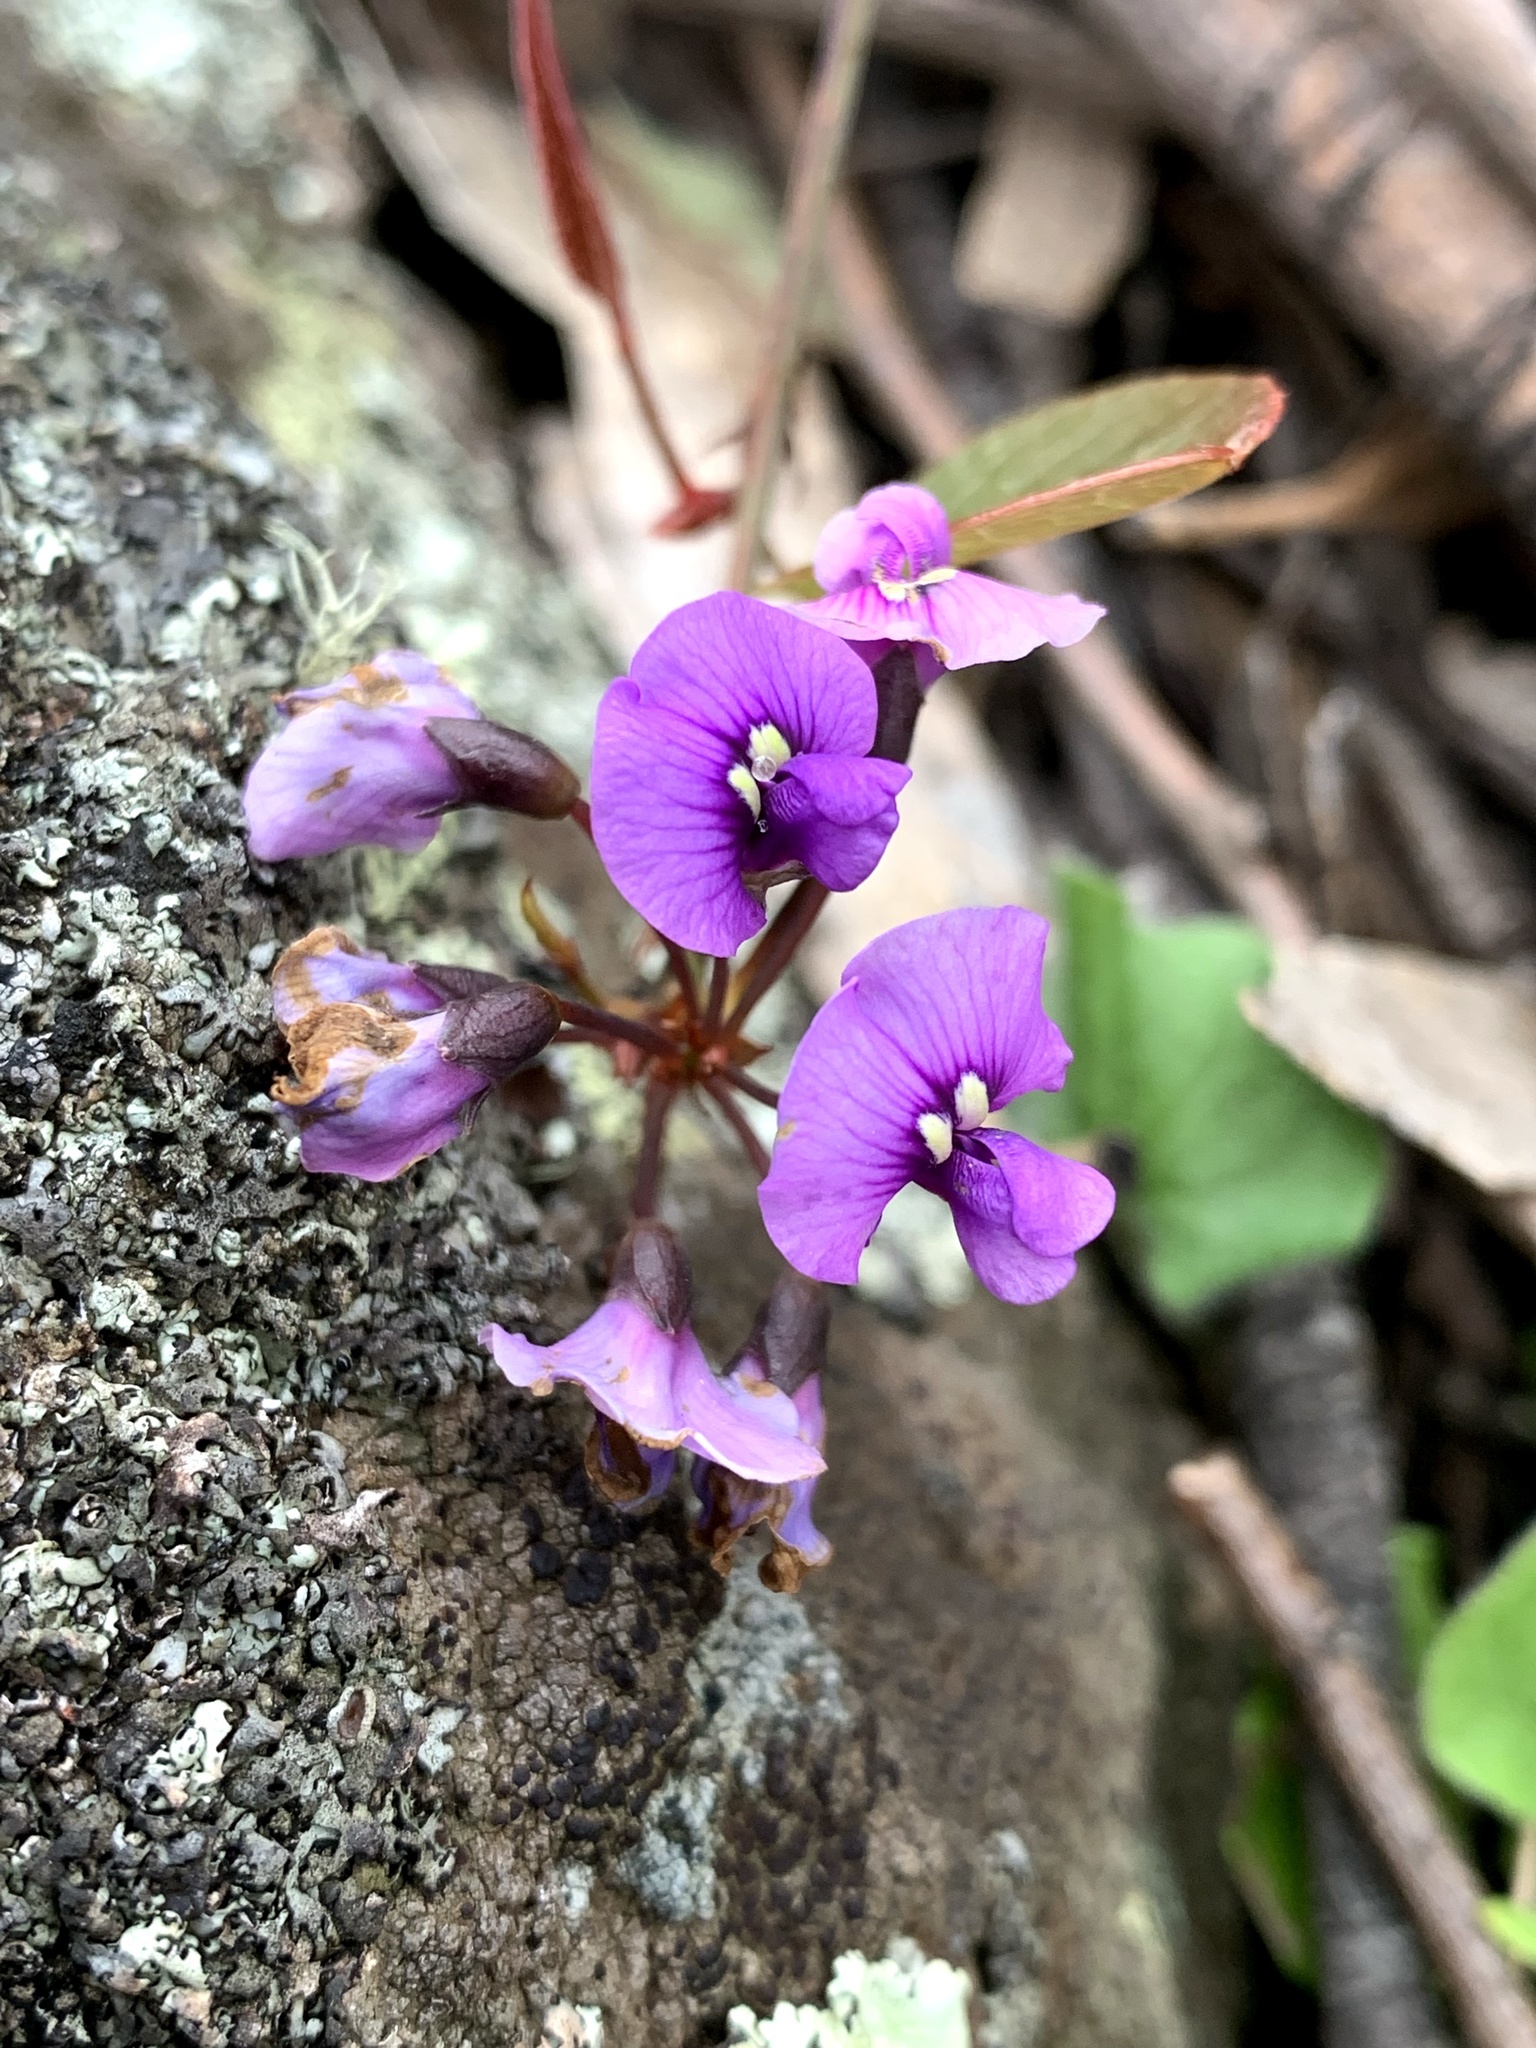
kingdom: Plantae
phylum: Tracheophyta
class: Magnoliopsida
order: Fabales
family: Fabaceae
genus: Hardenbergia
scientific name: Hardenbergia violacea
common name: Coral-pea
